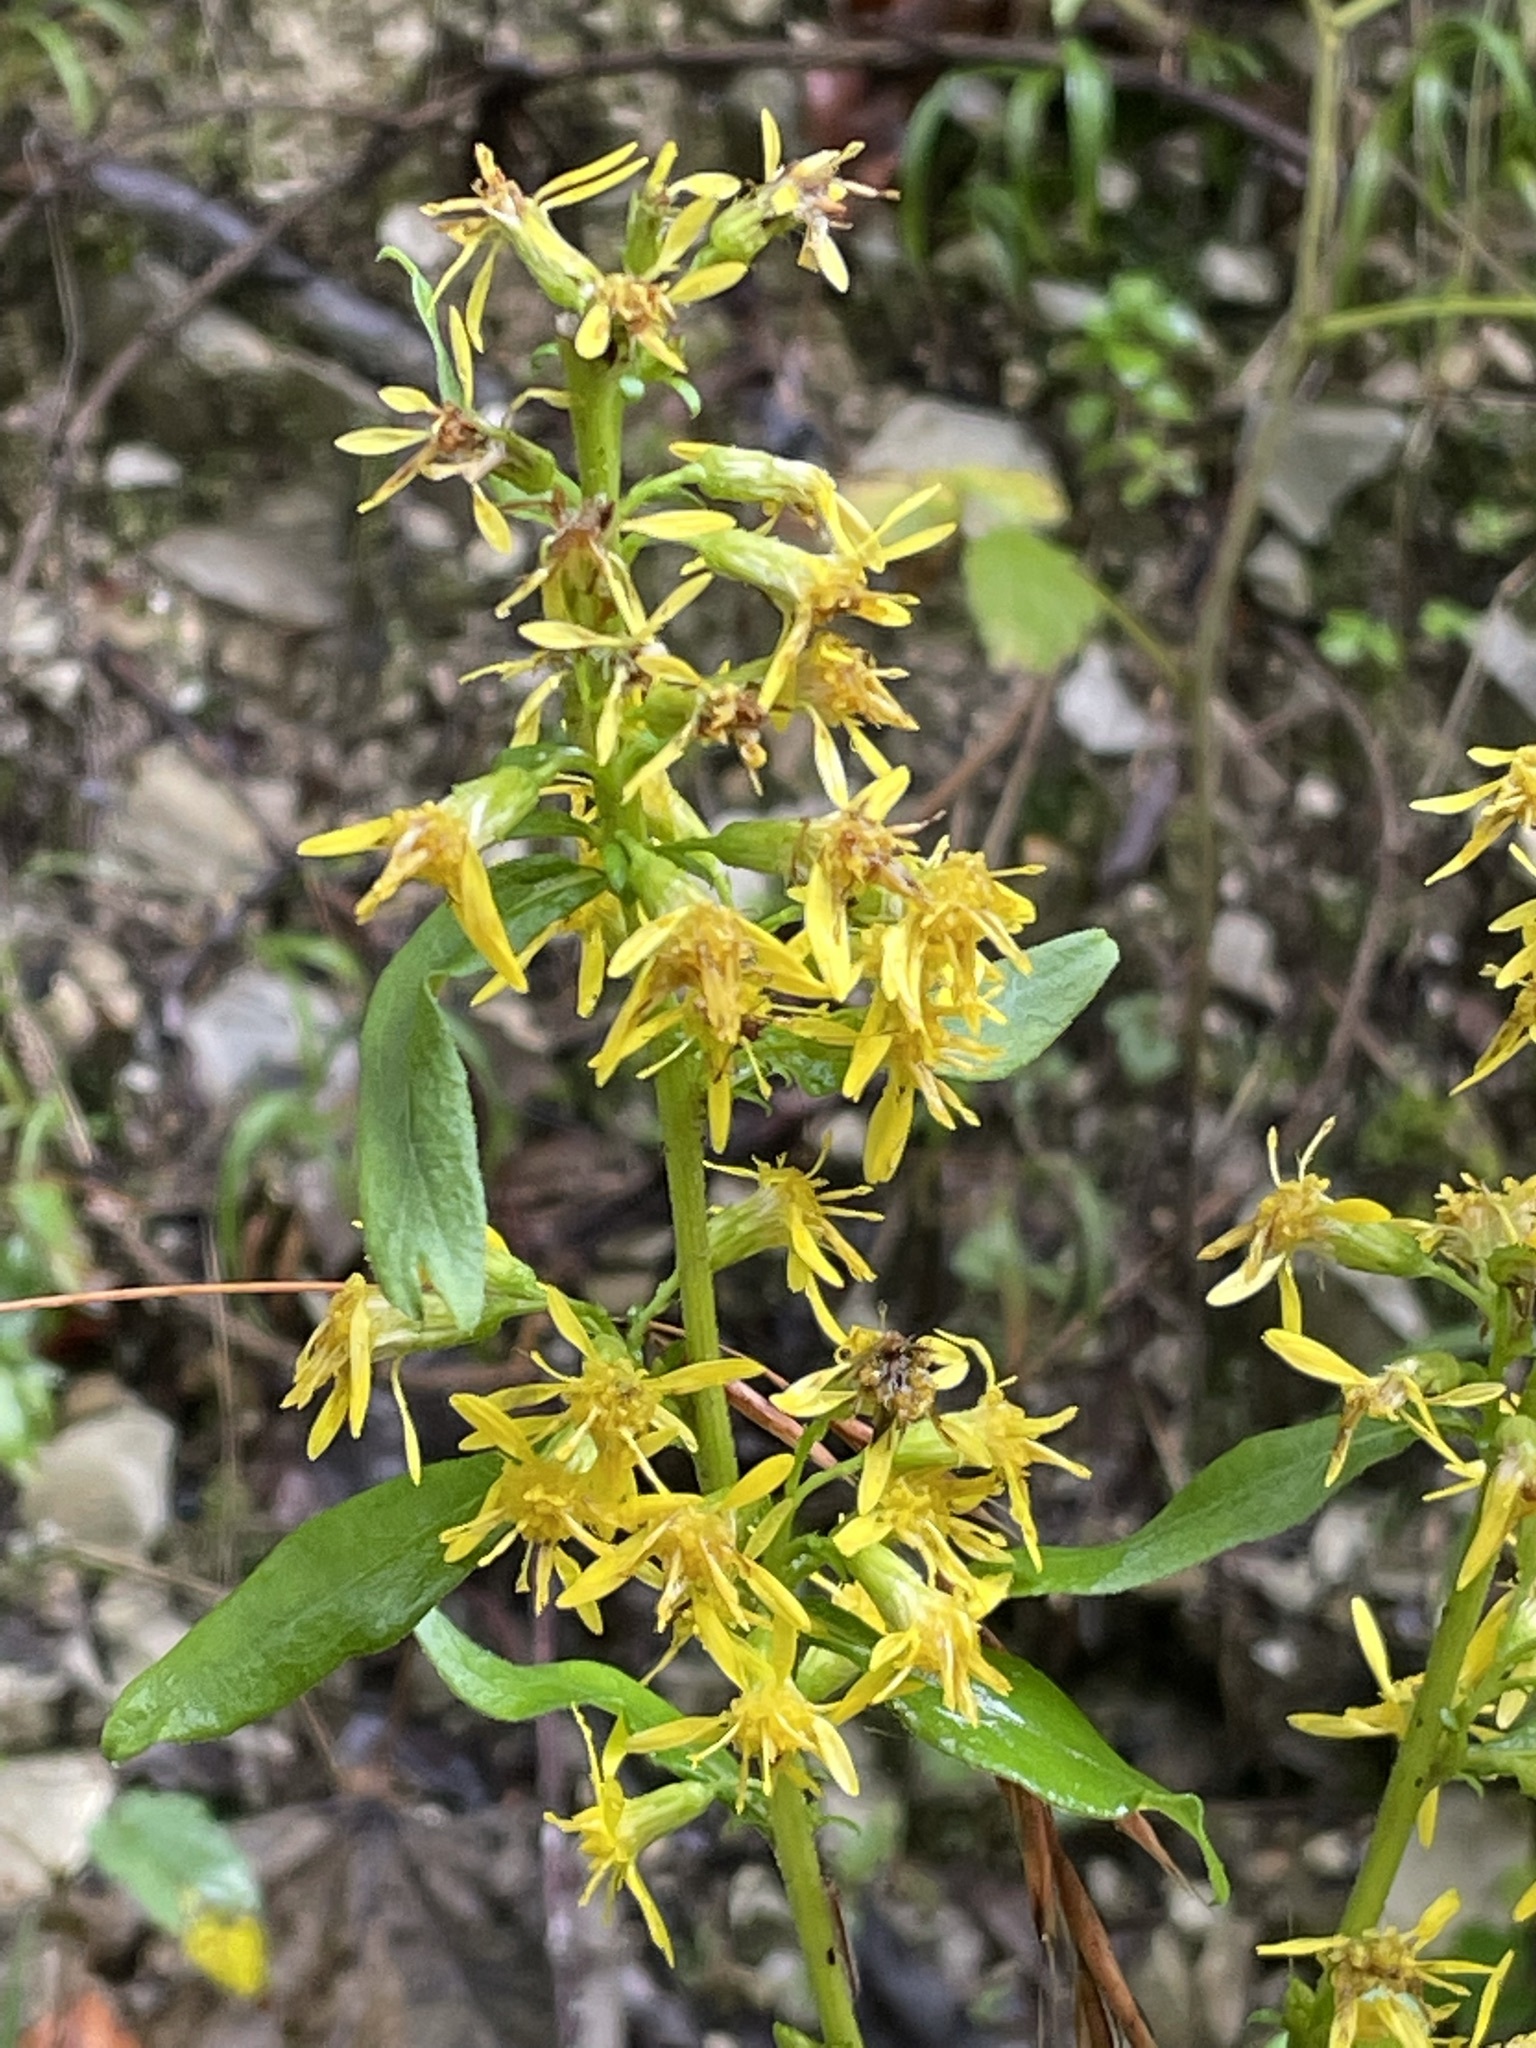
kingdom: Plantae
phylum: Tracheophyta
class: Magnoliopsida
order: Asterales
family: Asteraceae
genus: Solidago
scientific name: Solidago virgaurea
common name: Goldenrod
